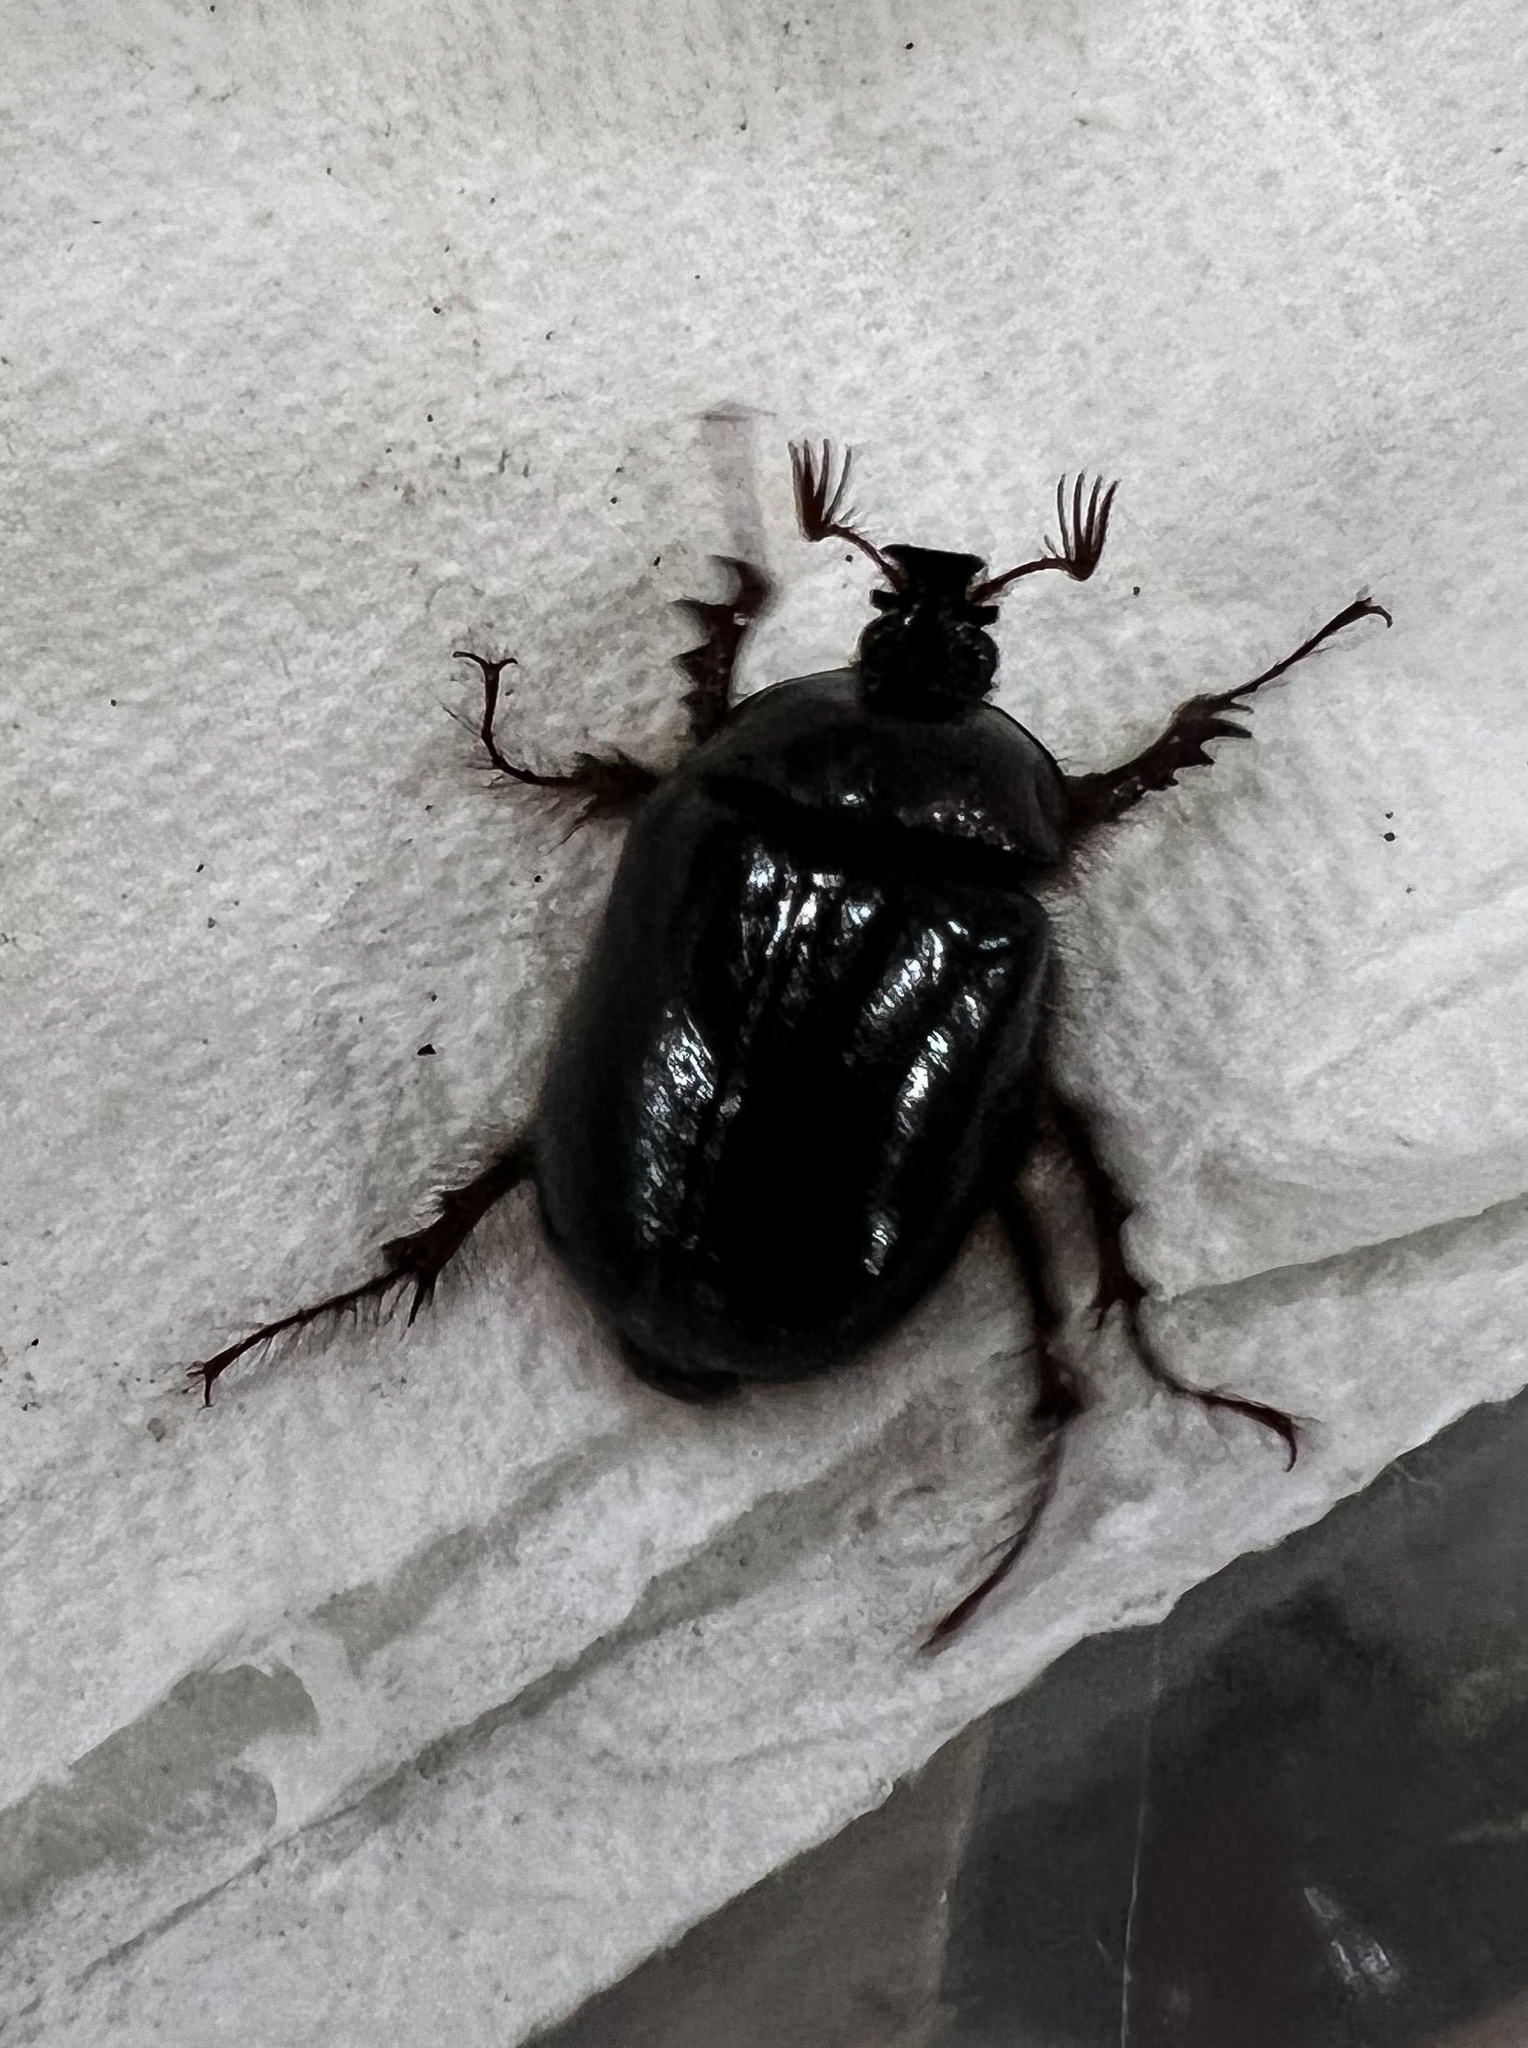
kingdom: Animalia
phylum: Arthropoda
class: Insecta
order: Coleoptera
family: Pleocomidae
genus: Pleocoma
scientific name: Pleocoma puncticollis
